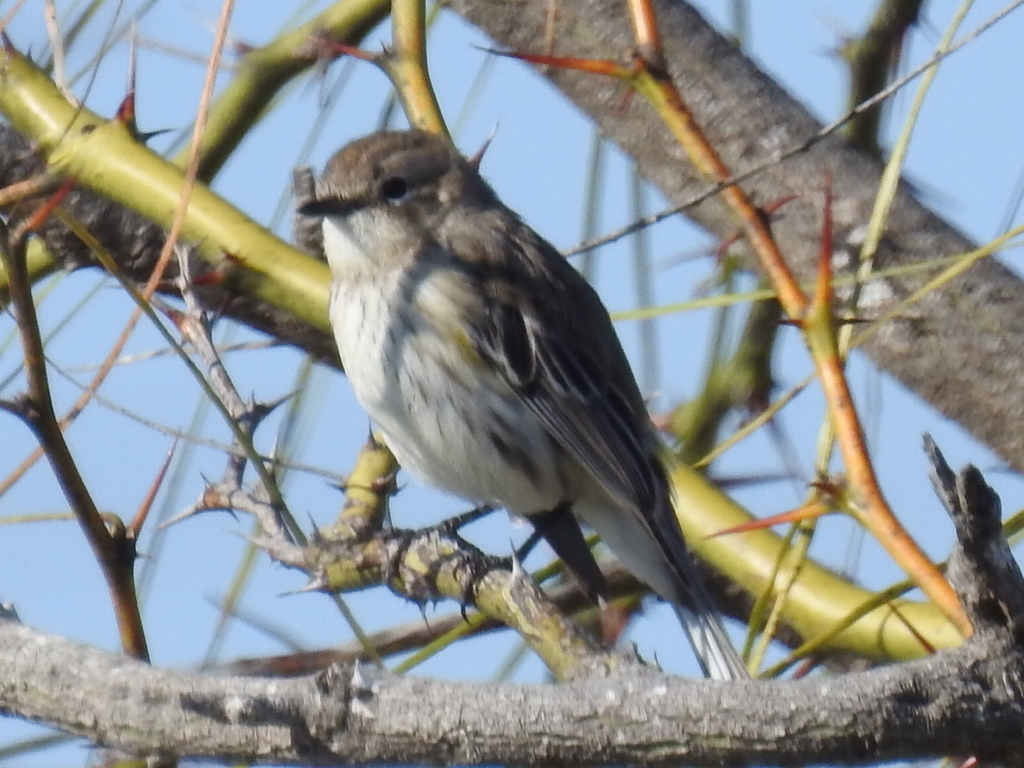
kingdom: Animalia
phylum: Chordata
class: Aves
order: Passeriformes
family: Parulidae
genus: Setophaga
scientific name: Setophaga coronata
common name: Myrtle warbler
